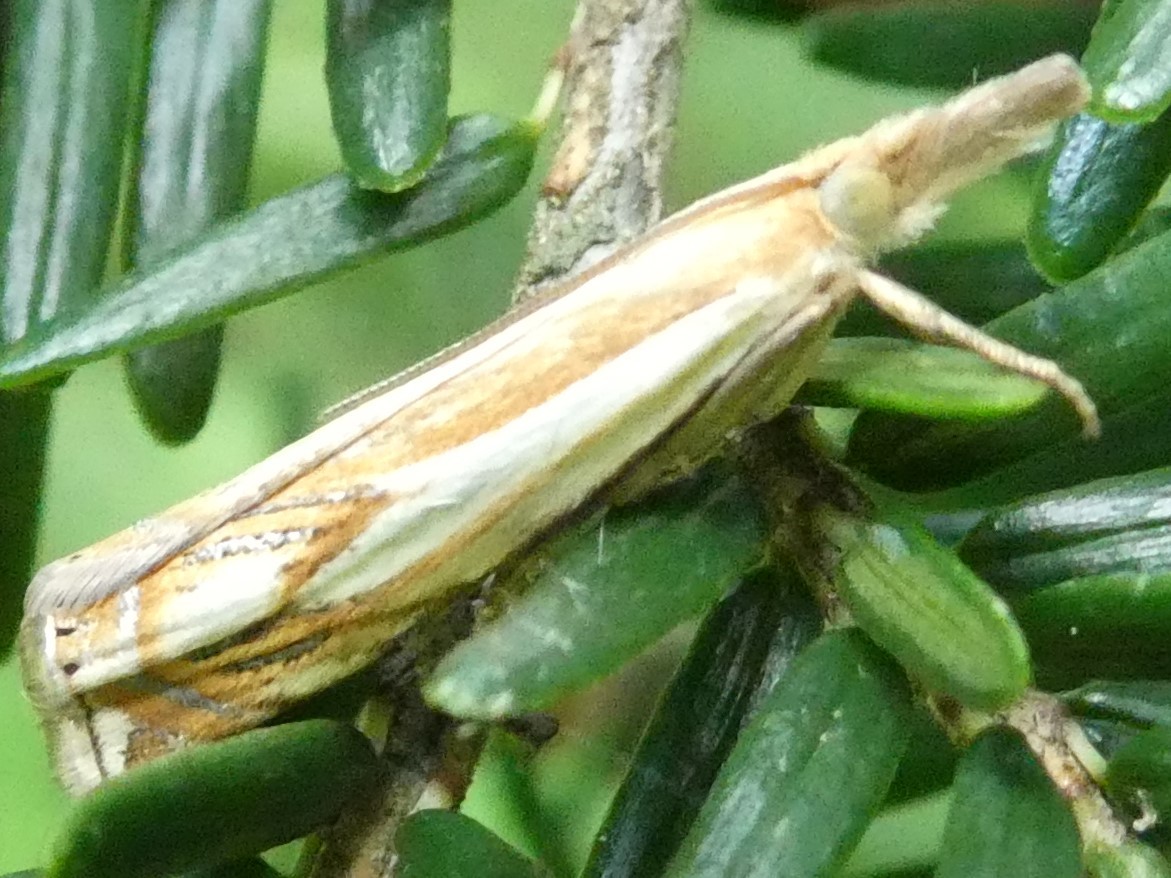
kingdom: Animalia
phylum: Arthropoda
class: Insecta
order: Lepidoptera
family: Crambidae
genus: Crambus
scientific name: Crambus agitatellus
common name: Double-banded grass-veneer
